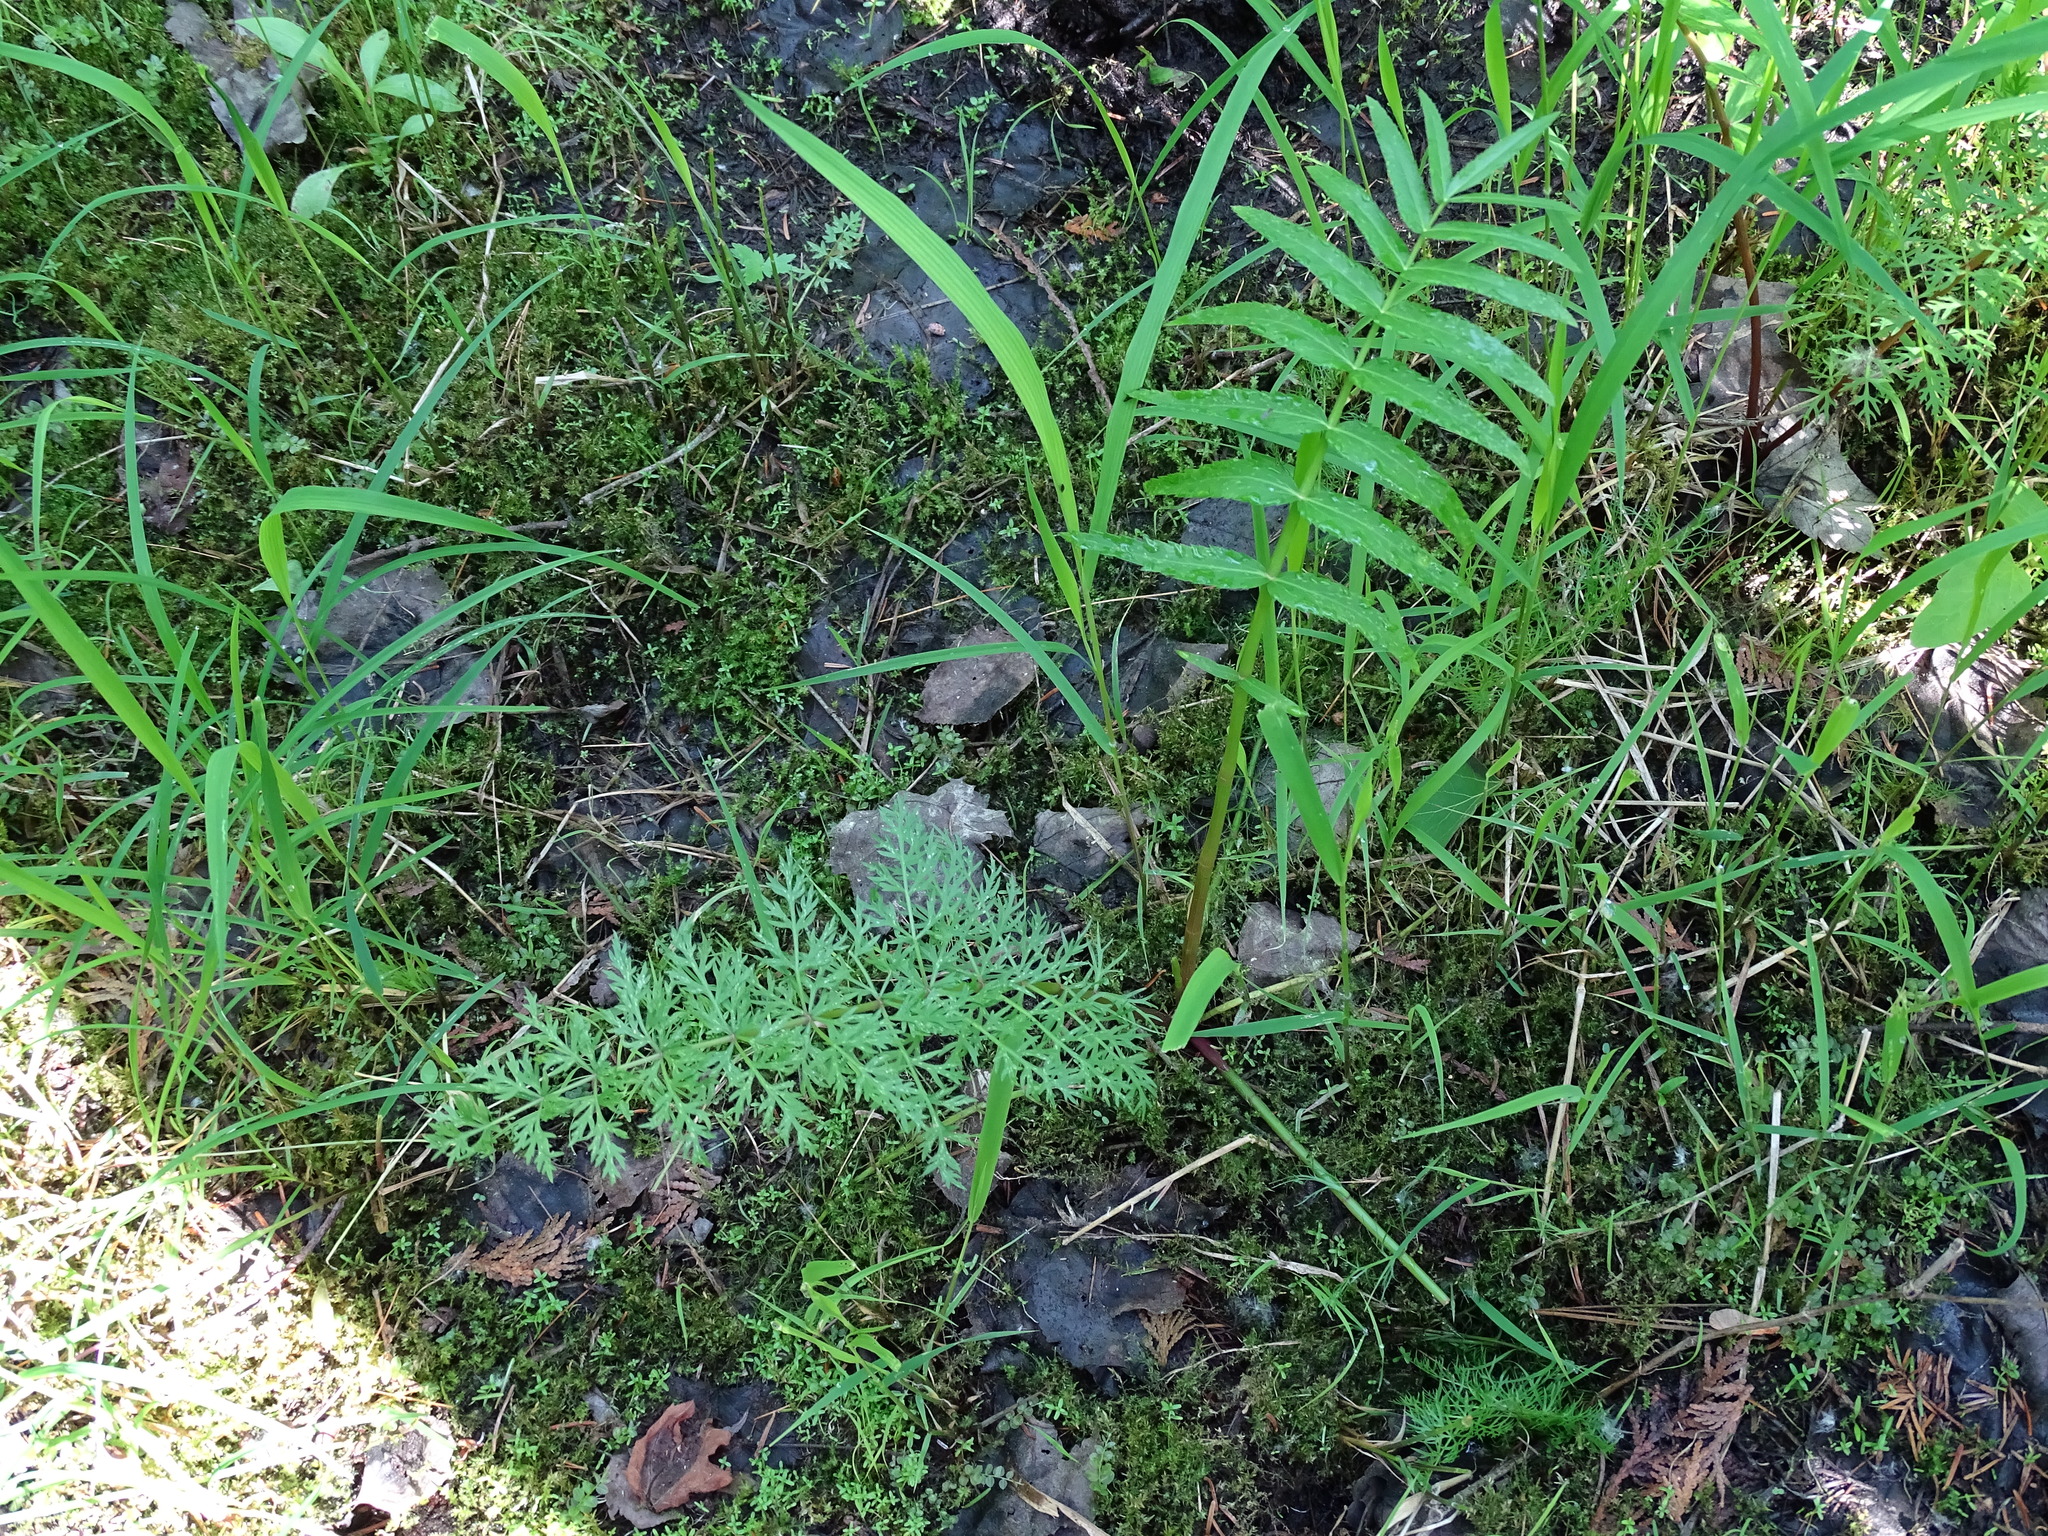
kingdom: Plantae
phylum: Tracheophyta
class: Magnoliopsida
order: Apiales
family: Apiaceae
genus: Sium
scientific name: Sium suave
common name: Hemlock water-parsnip
